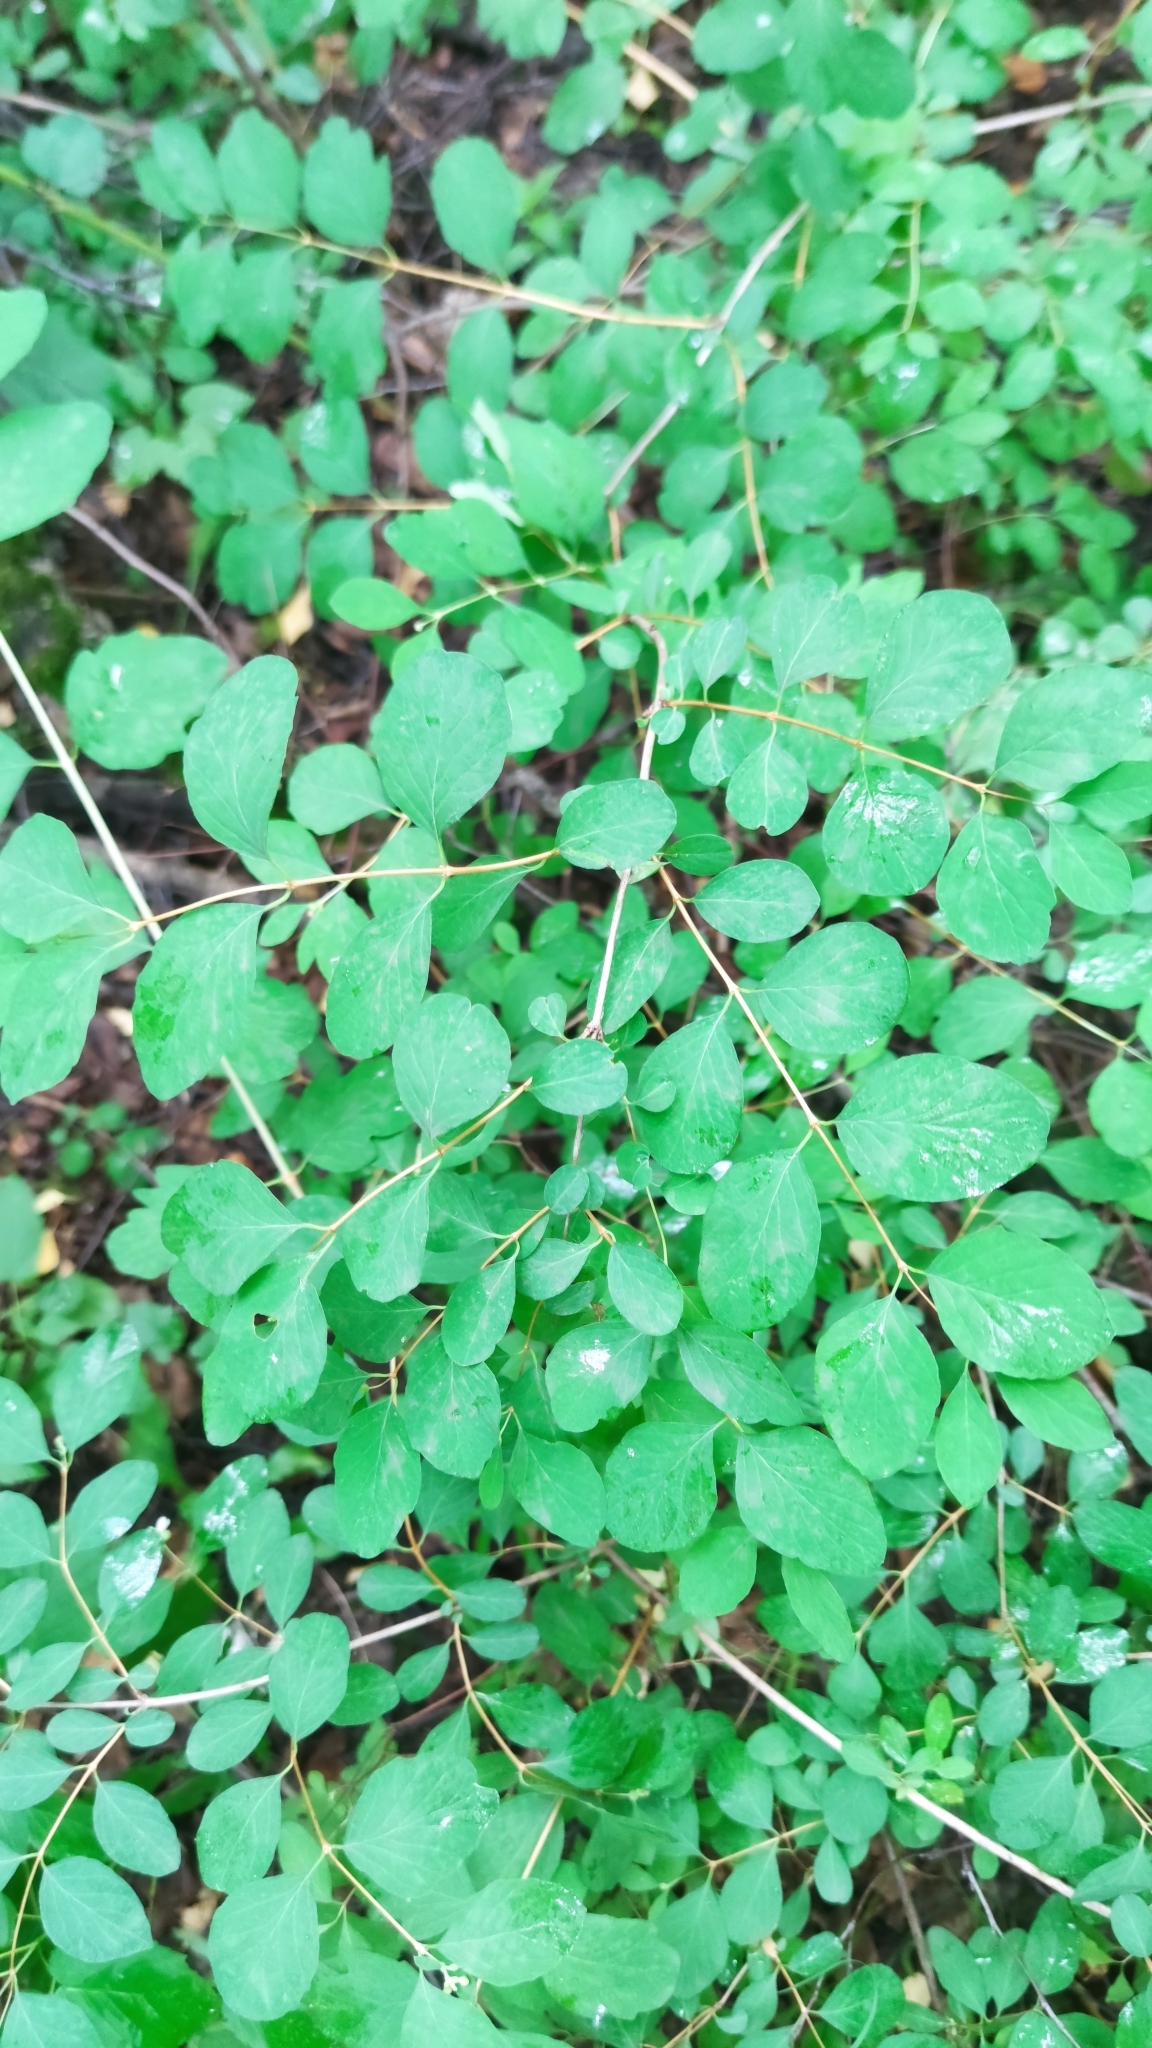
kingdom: Plantae
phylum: Tracheophyta
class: Magnoliopsida
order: Dipsacales
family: Caprifoliaceae
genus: Symphoricarpos
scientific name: Symphoricarpos albus
